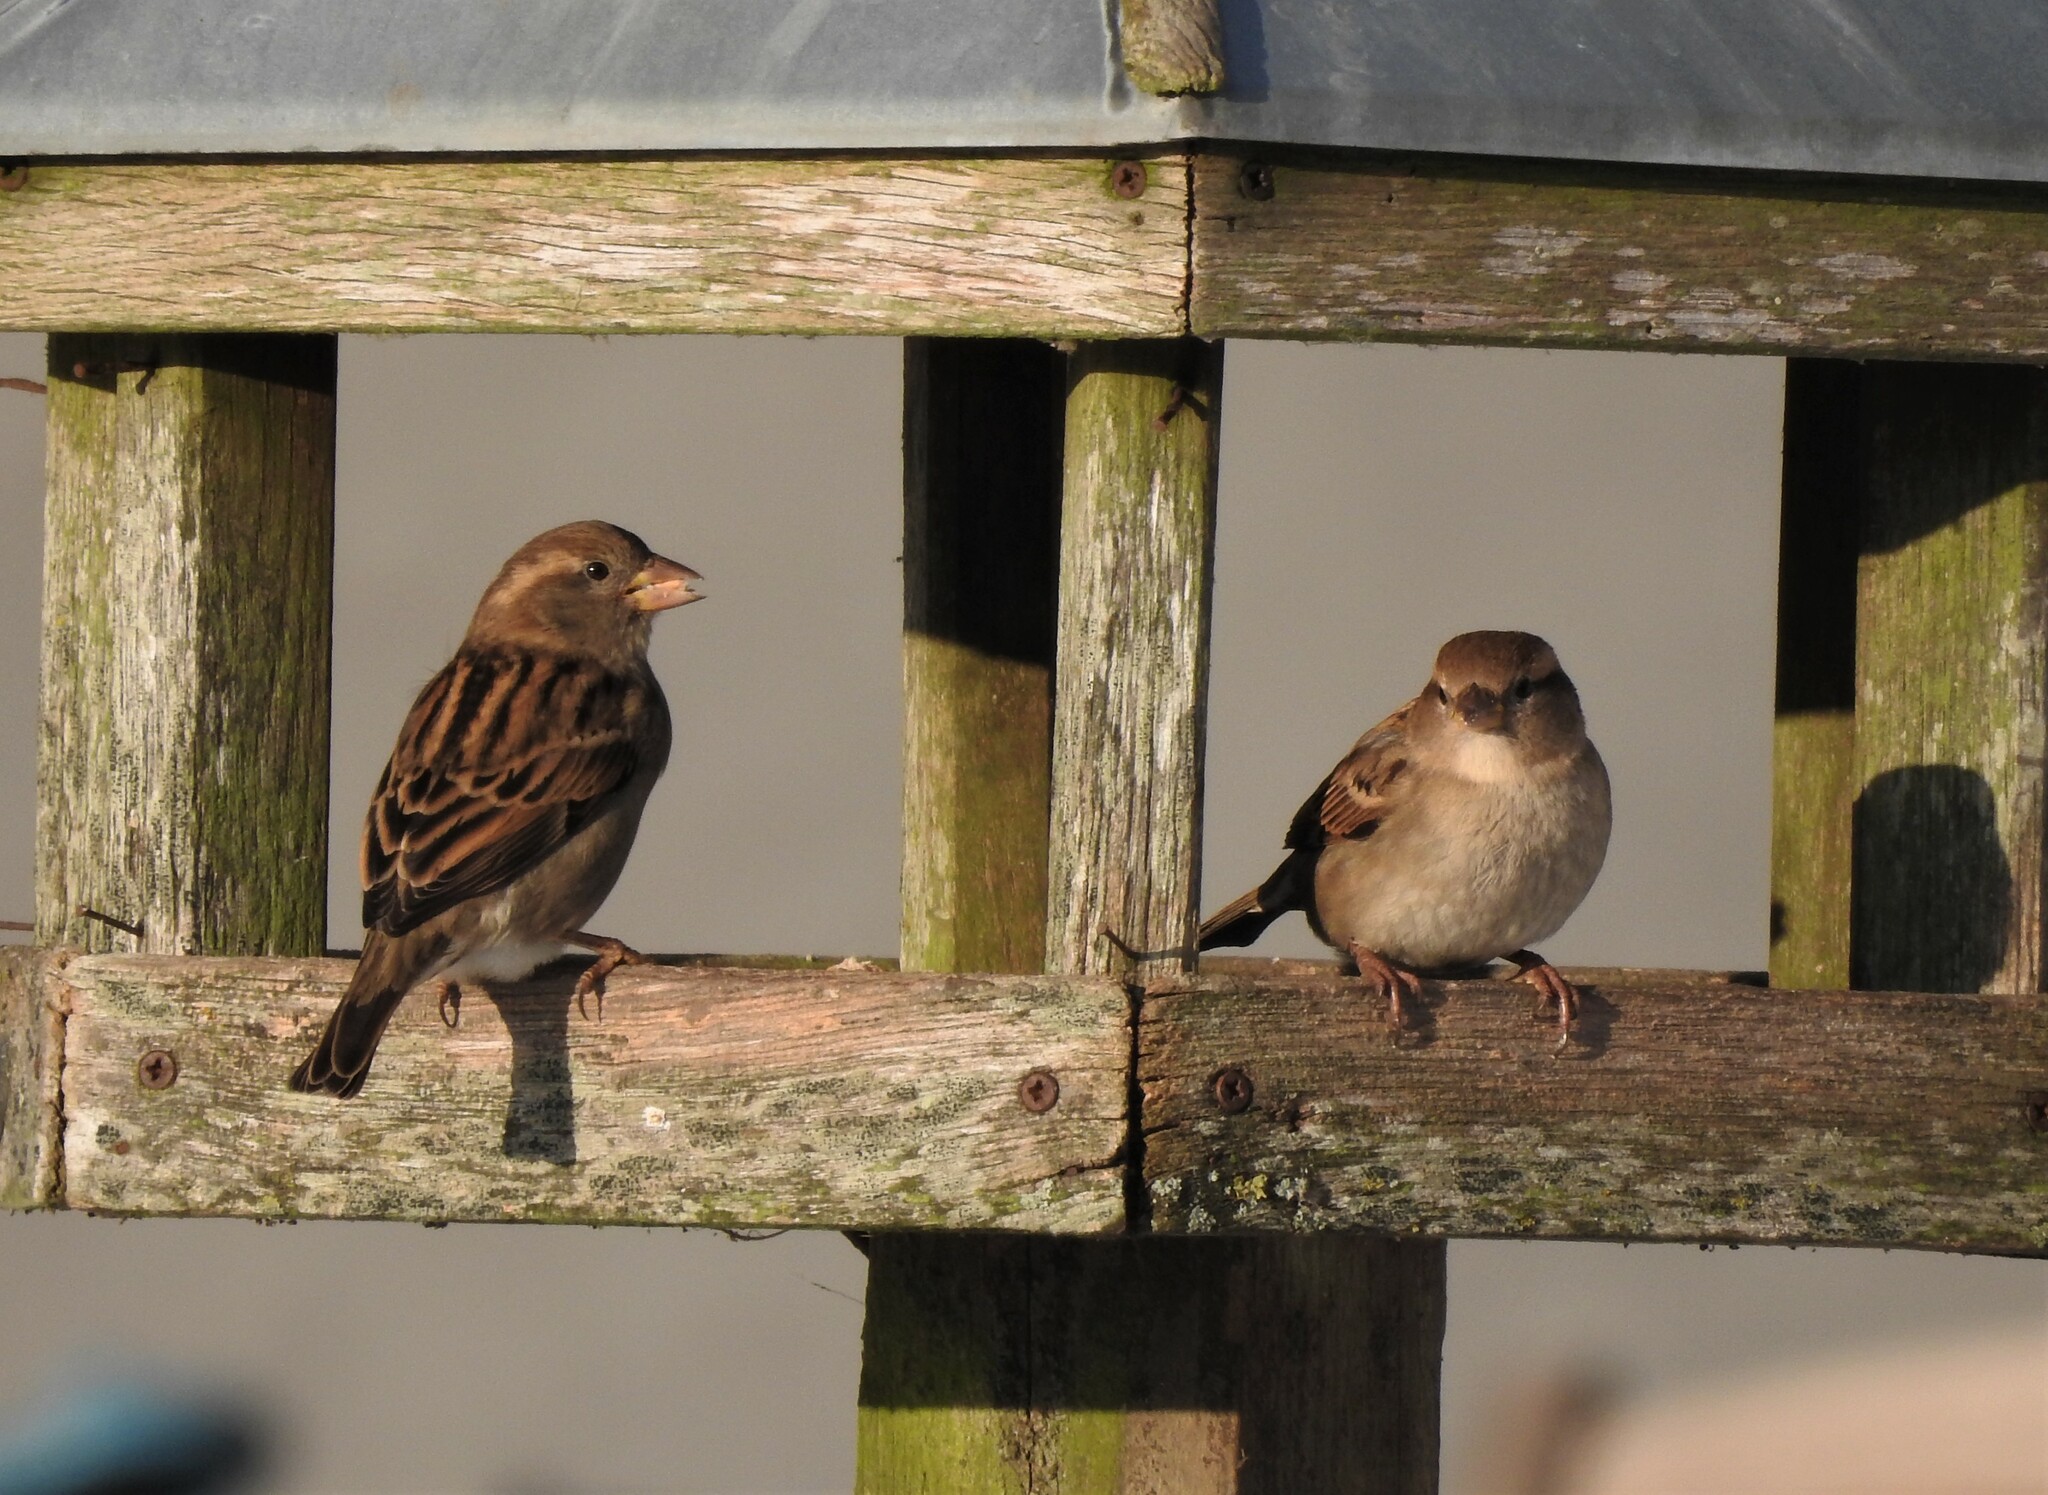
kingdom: Animalia
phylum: Chordata
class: Aves
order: Passeriformes
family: Passeridae
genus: Passer
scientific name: Passer domesticus
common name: House sparrow
